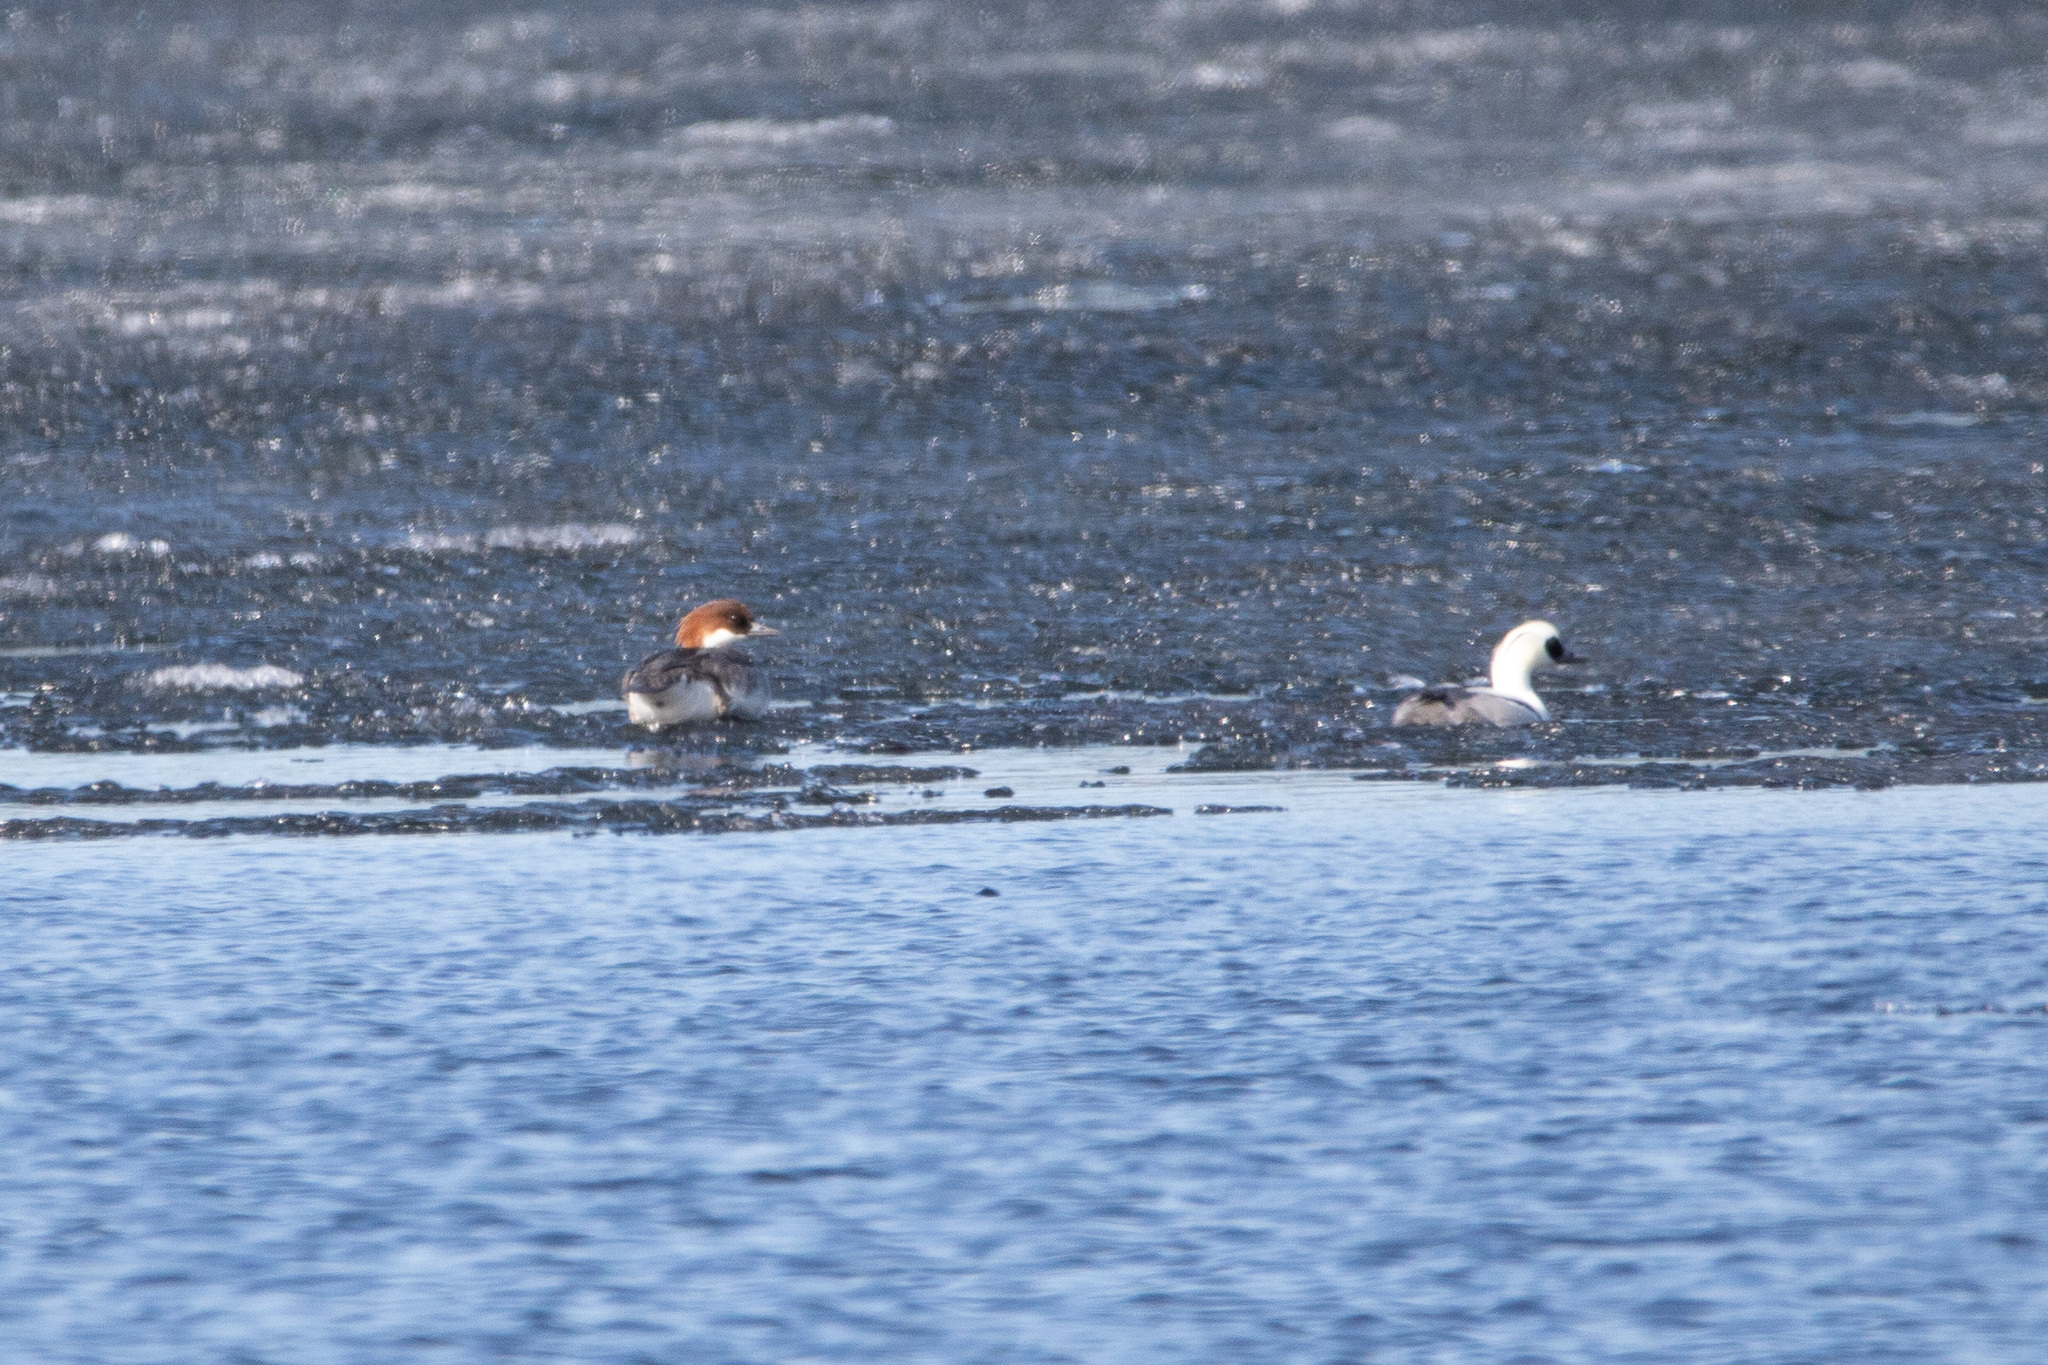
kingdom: Animalia
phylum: Chordata
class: Aves
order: Anseriformes
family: Anatidae
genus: Mergellus
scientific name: Mergellus albellus
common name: Smew
